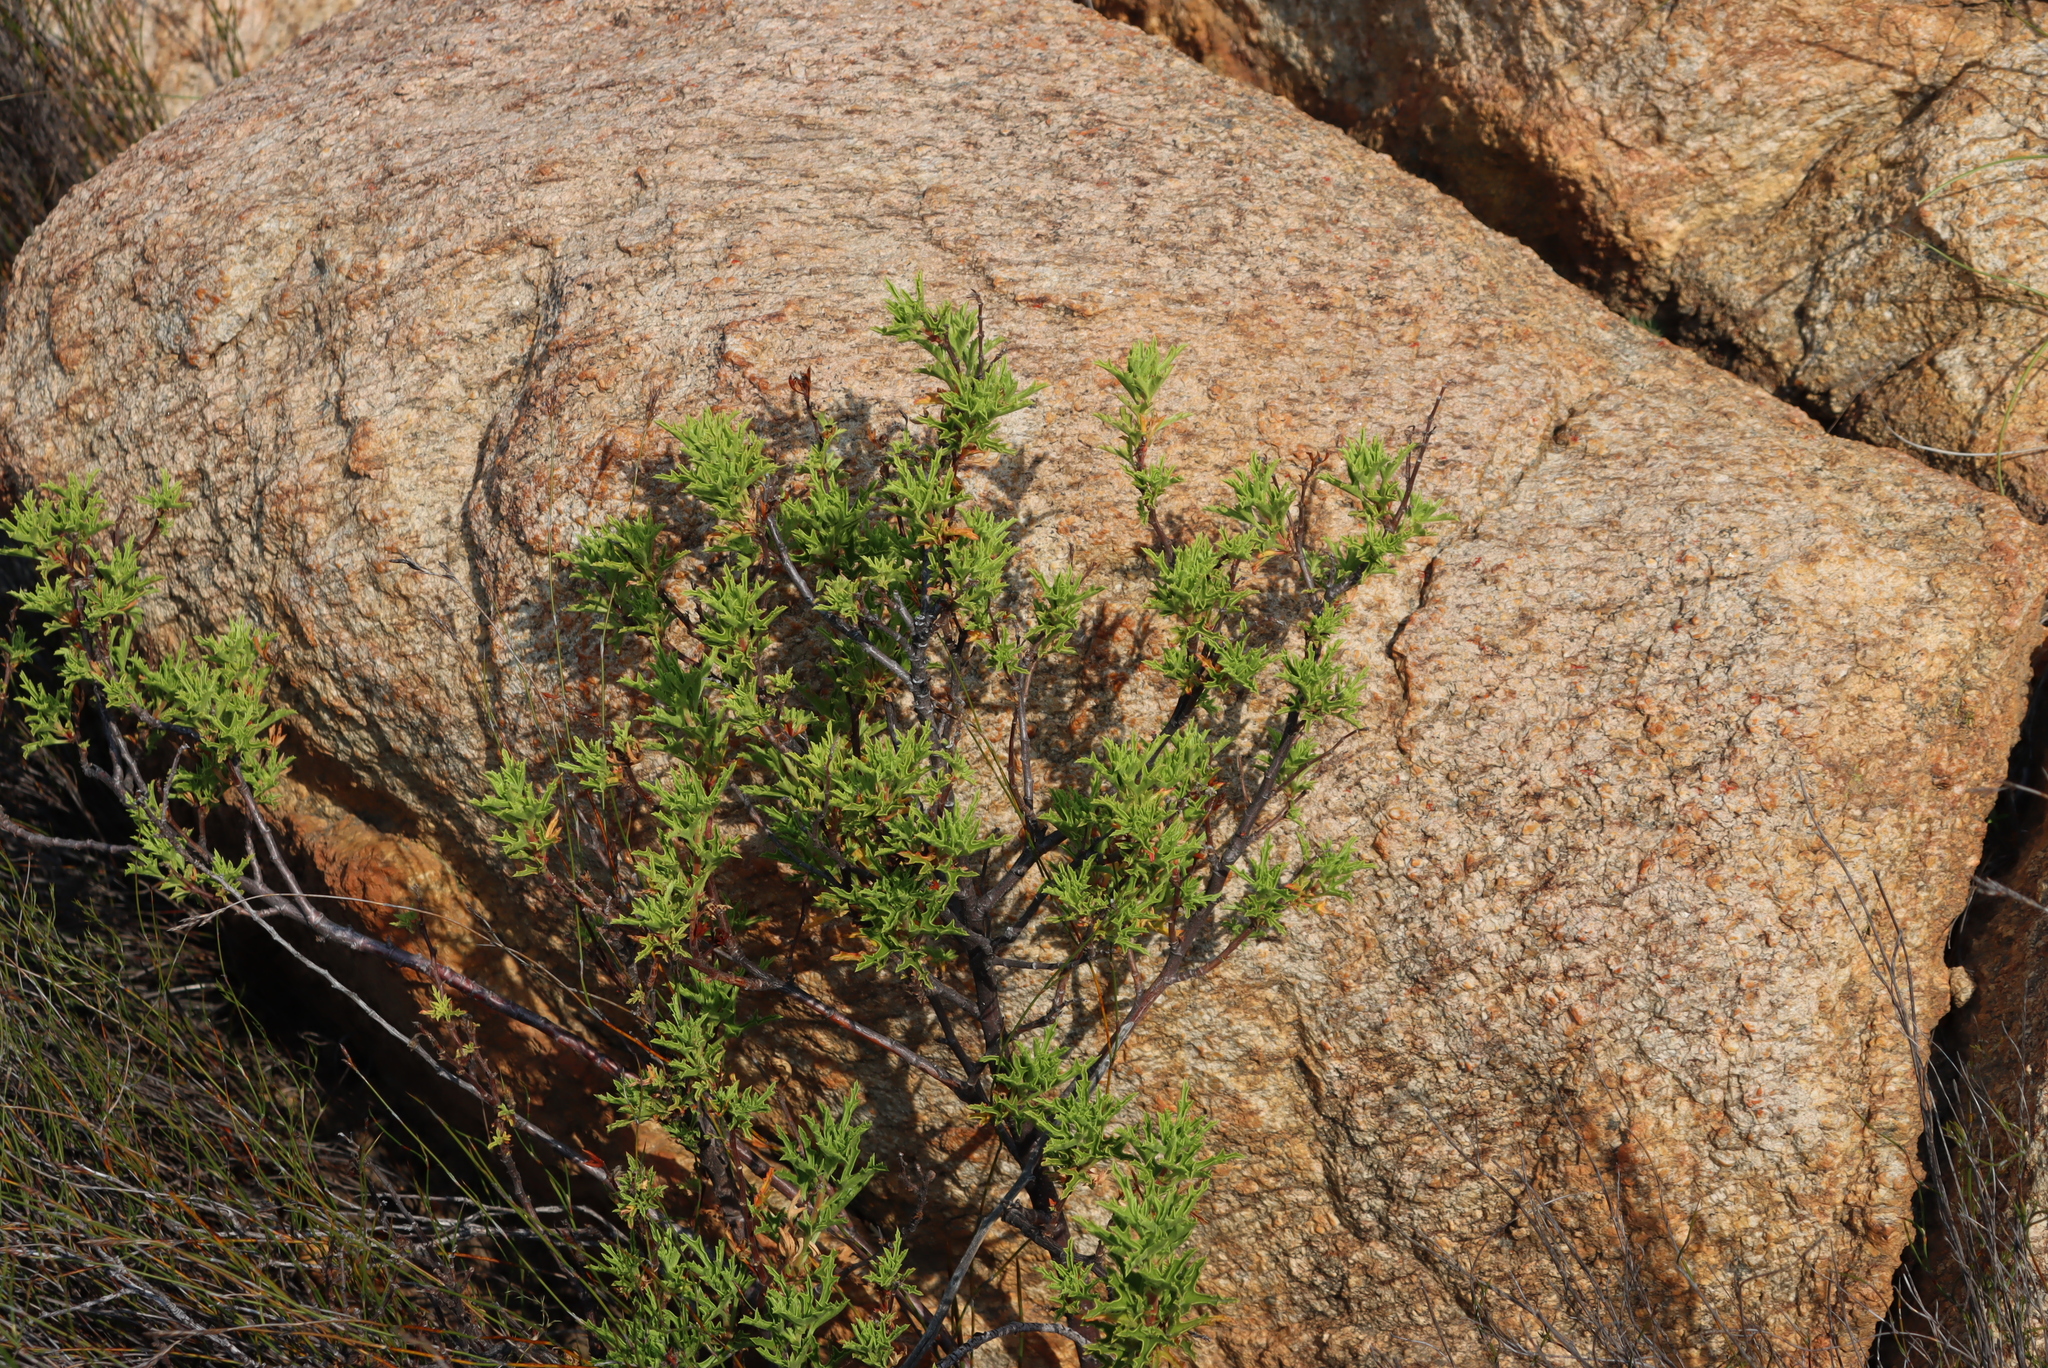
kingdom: Plantae
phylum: Tracheophyta
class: Magnoliopsida
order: Geraniales
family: Geraniaceae
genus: Pelargonium
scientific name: Pelargonium scabrum
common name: Apricot geranium
